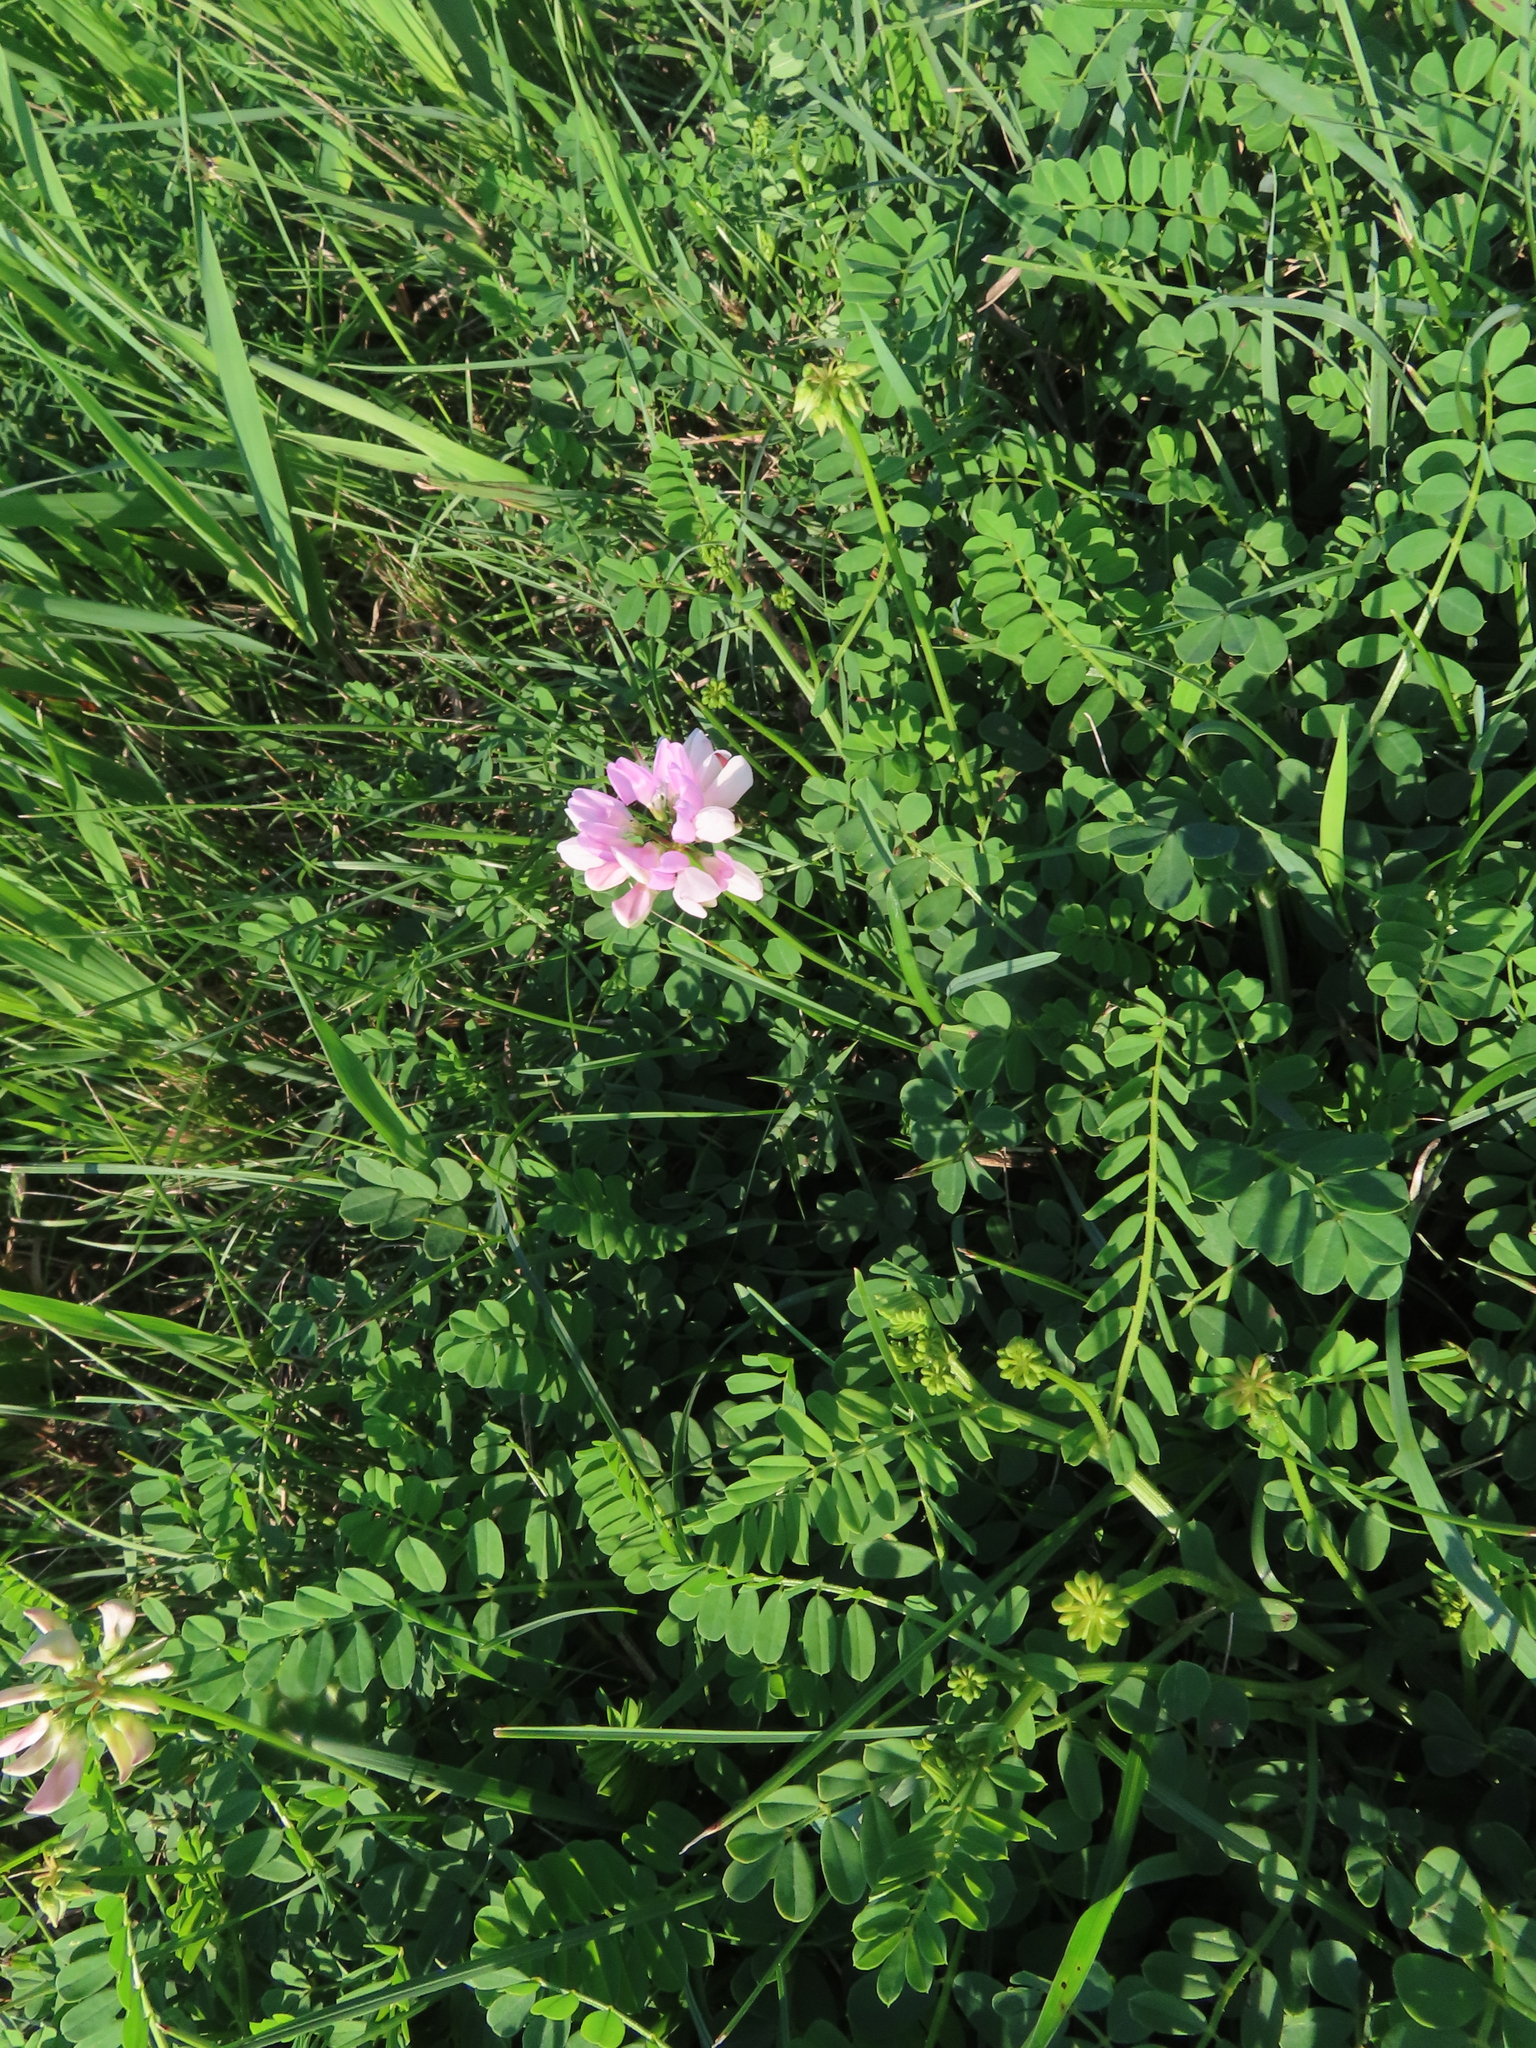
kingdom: Plantae
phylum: Tracheophyta
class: Magnoliopsida
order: Fabales
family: Fabaceae
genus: Coronilla
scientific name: Coronilla varia
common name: Crownvetch
